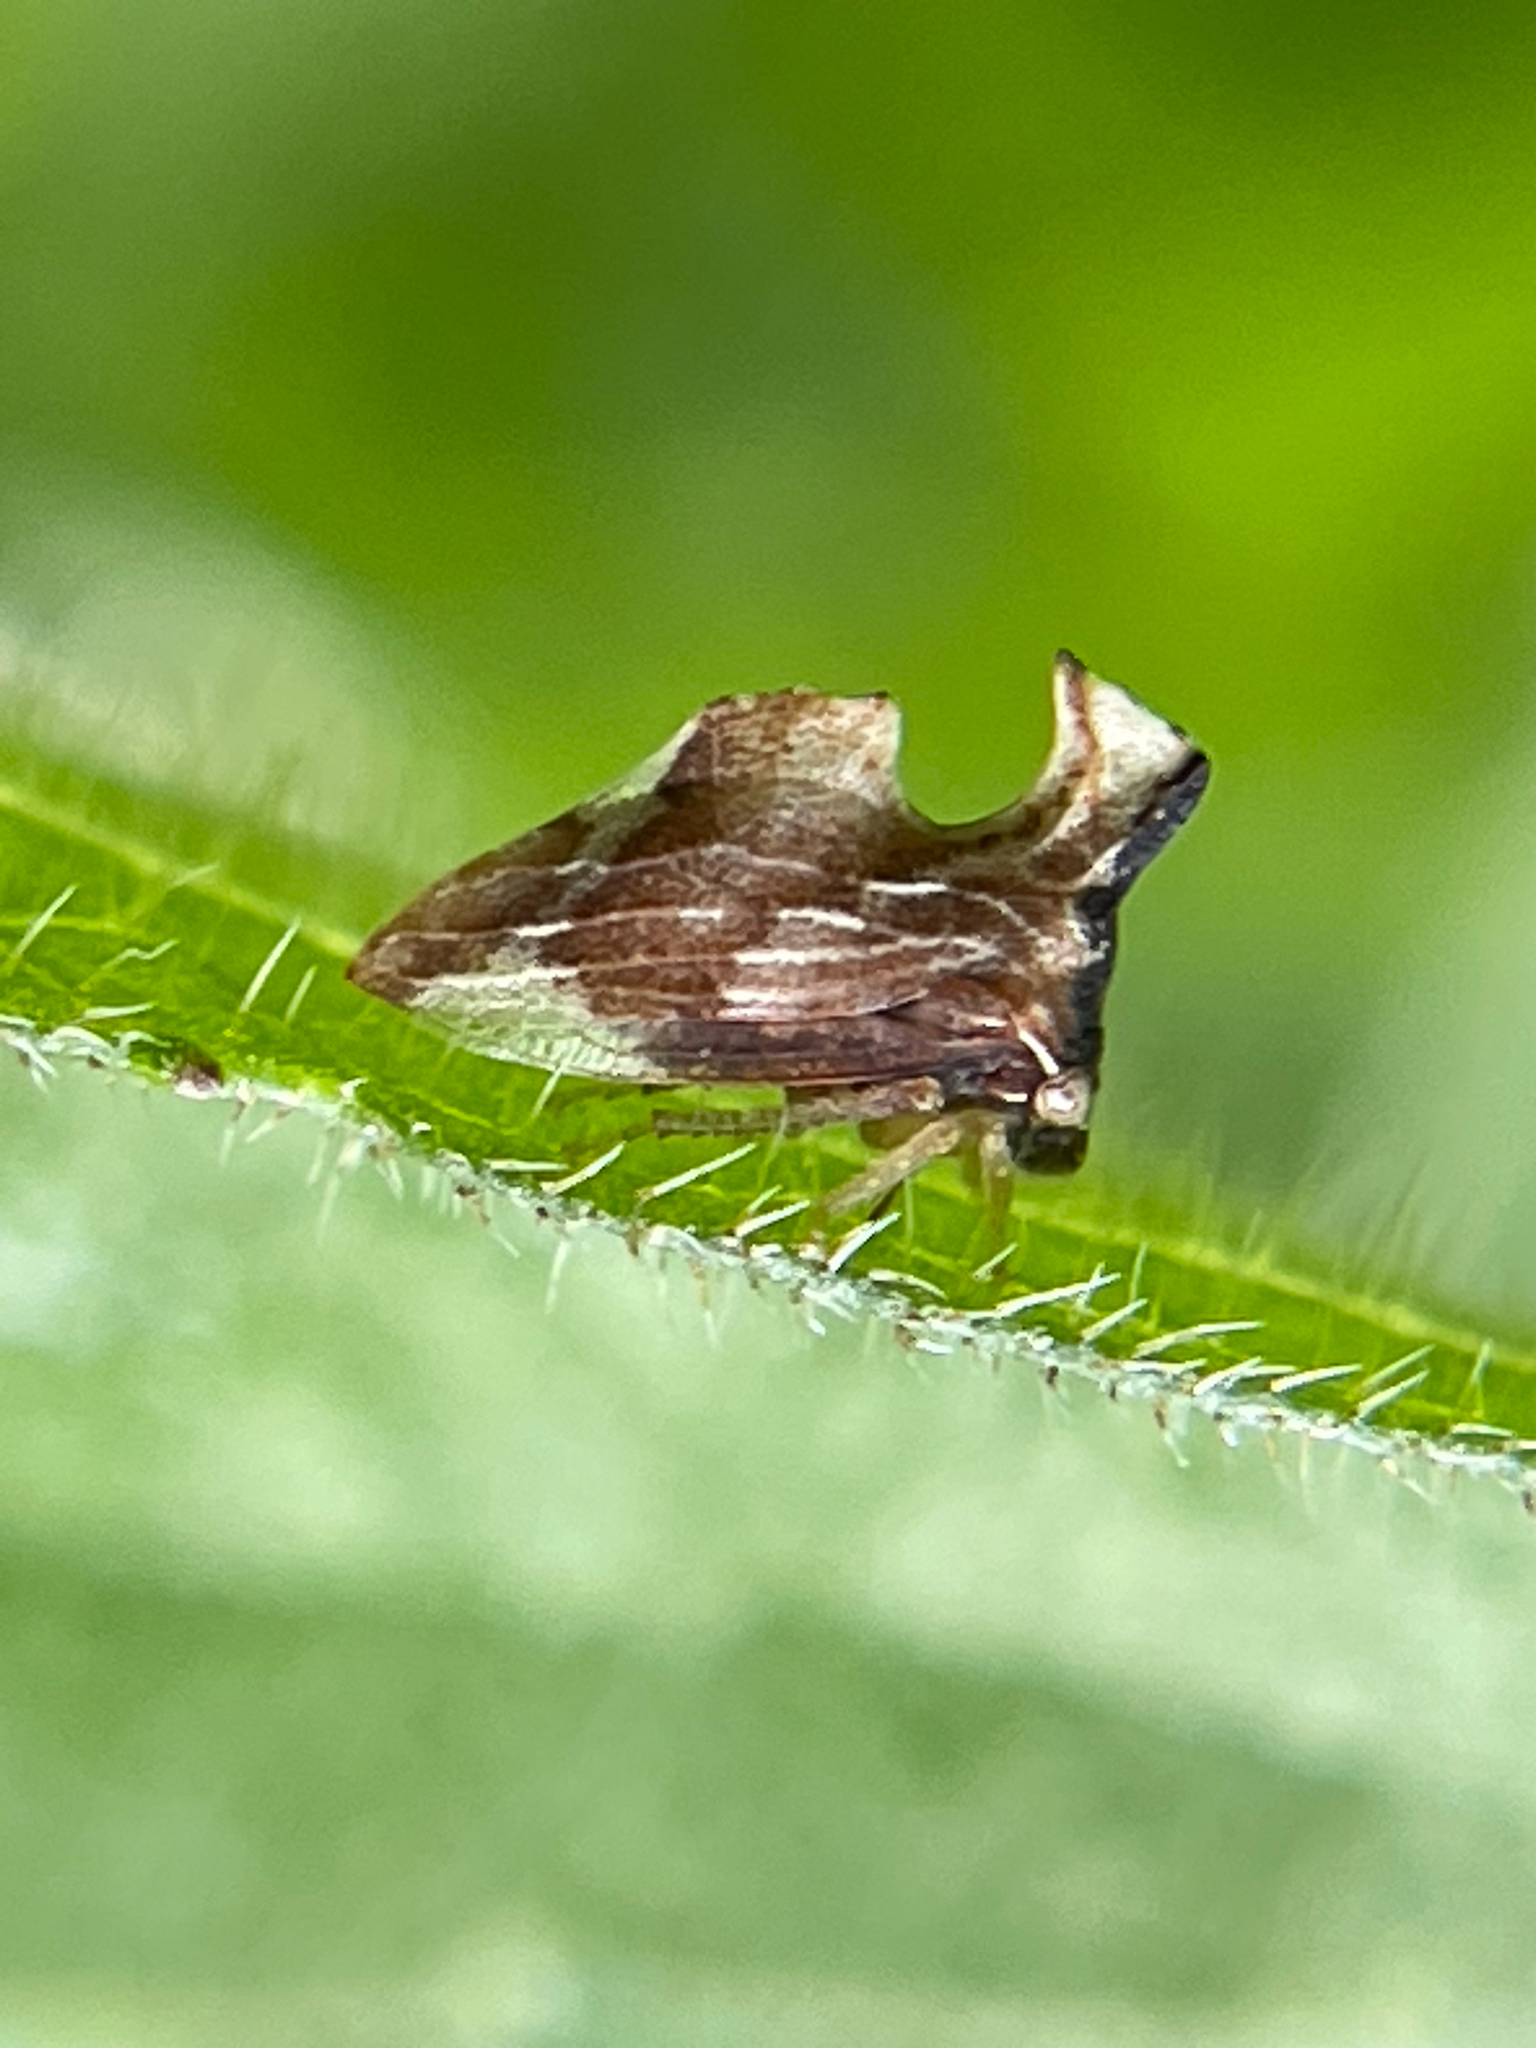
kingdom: Animalia
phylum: Arthropoda
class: Insecta
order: Hemiptera
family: Membracidae
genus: Entylia
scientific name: Entylia carinata
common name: Keeled treehopper
